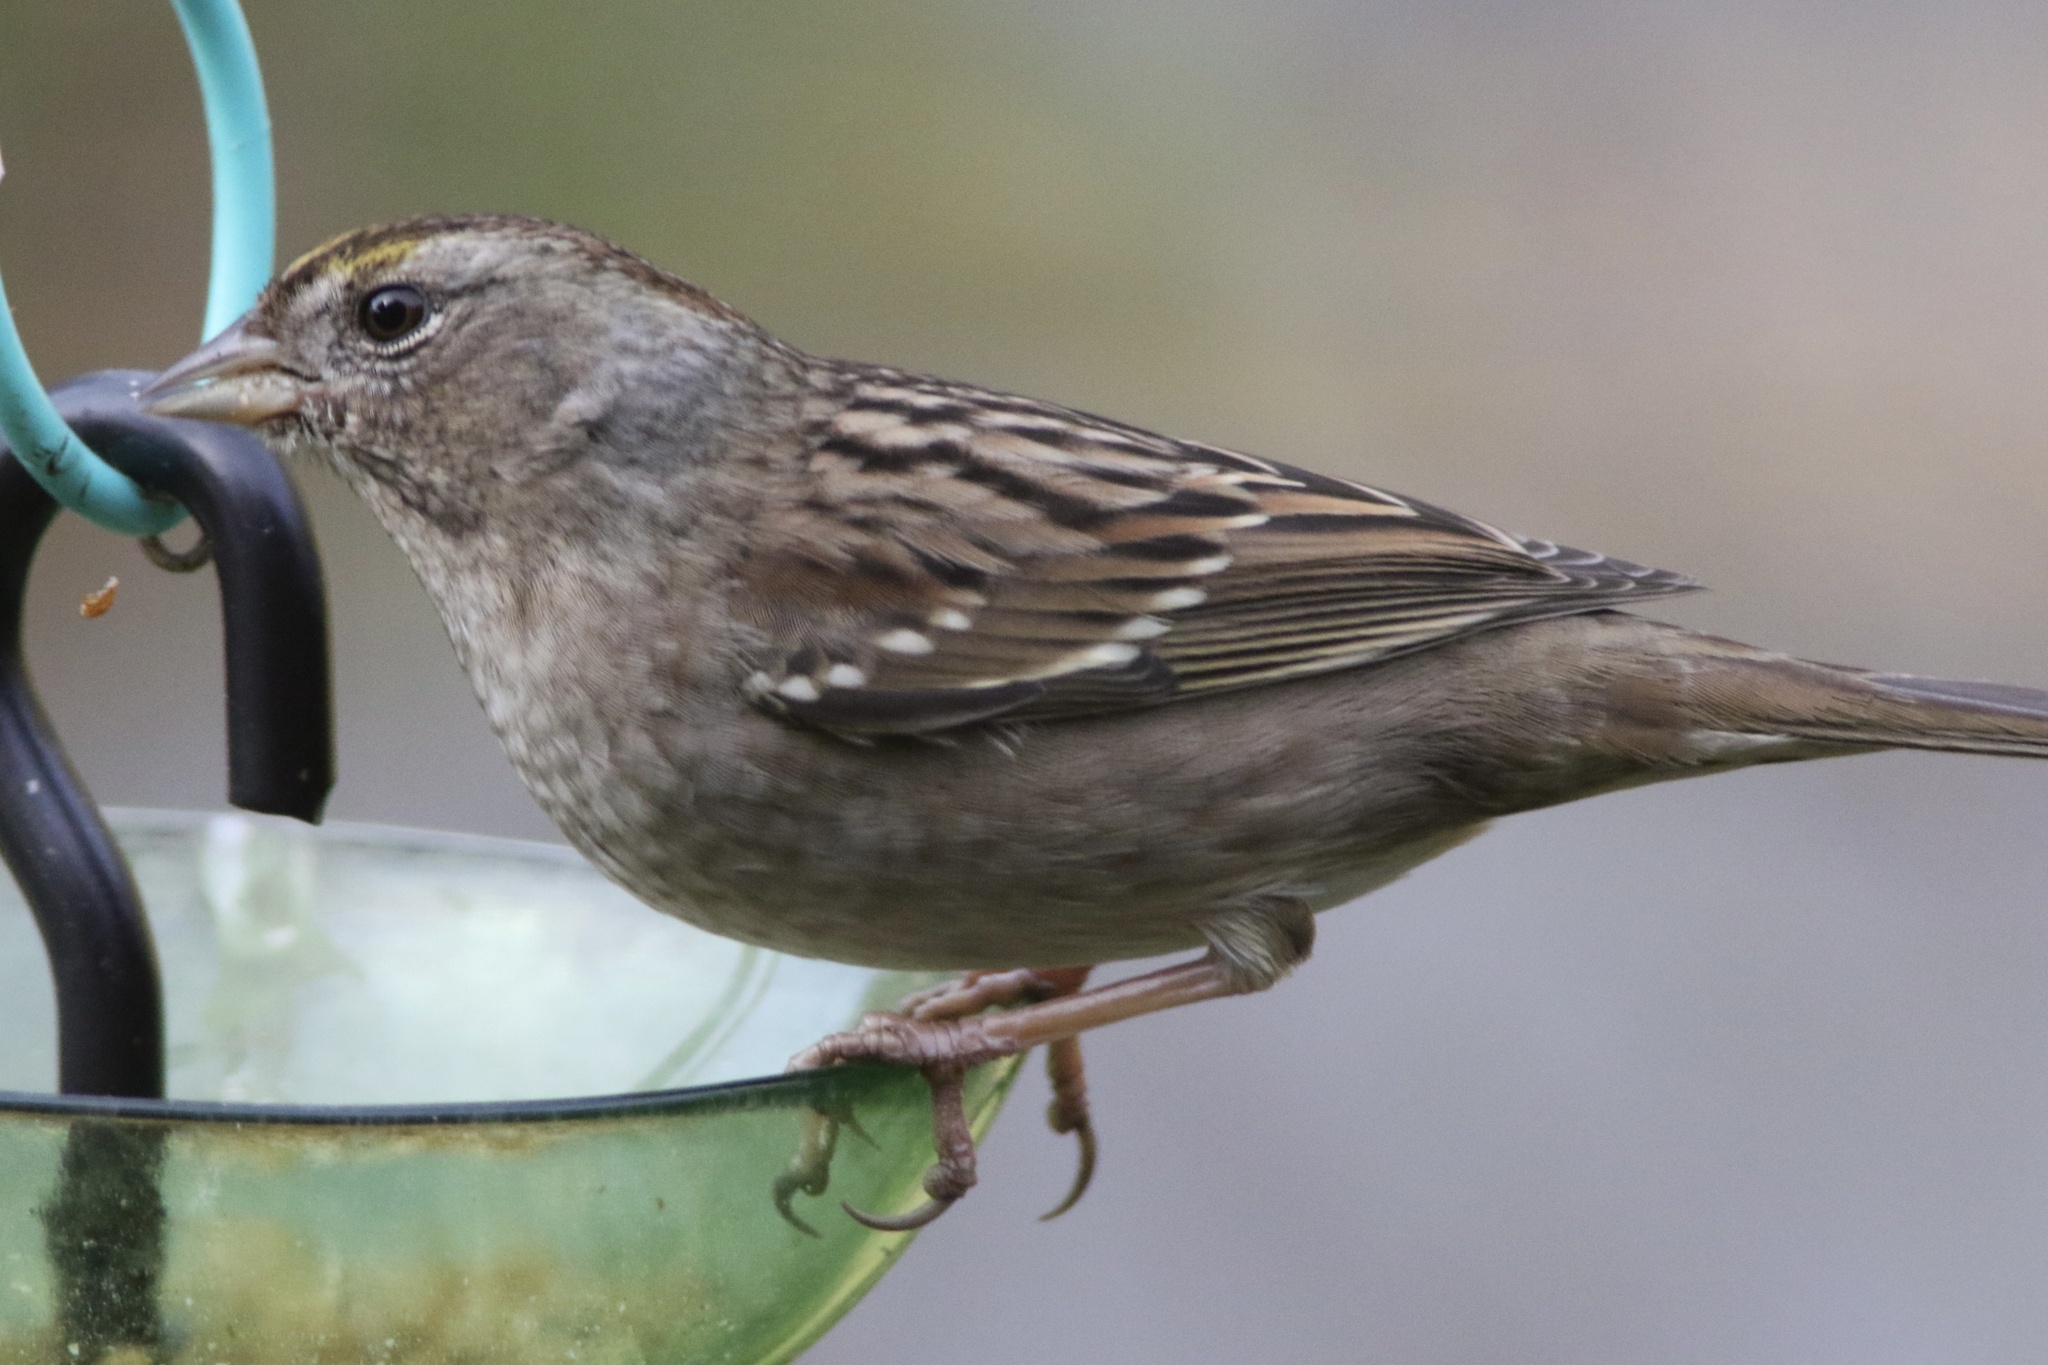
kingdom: Animalia
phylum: Chordata
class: Aves
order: Passeriformes
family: Passerellidae
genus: Zonotrichia
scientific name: Zonotrichia atricapilla
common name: Golden-crowned sparrow
